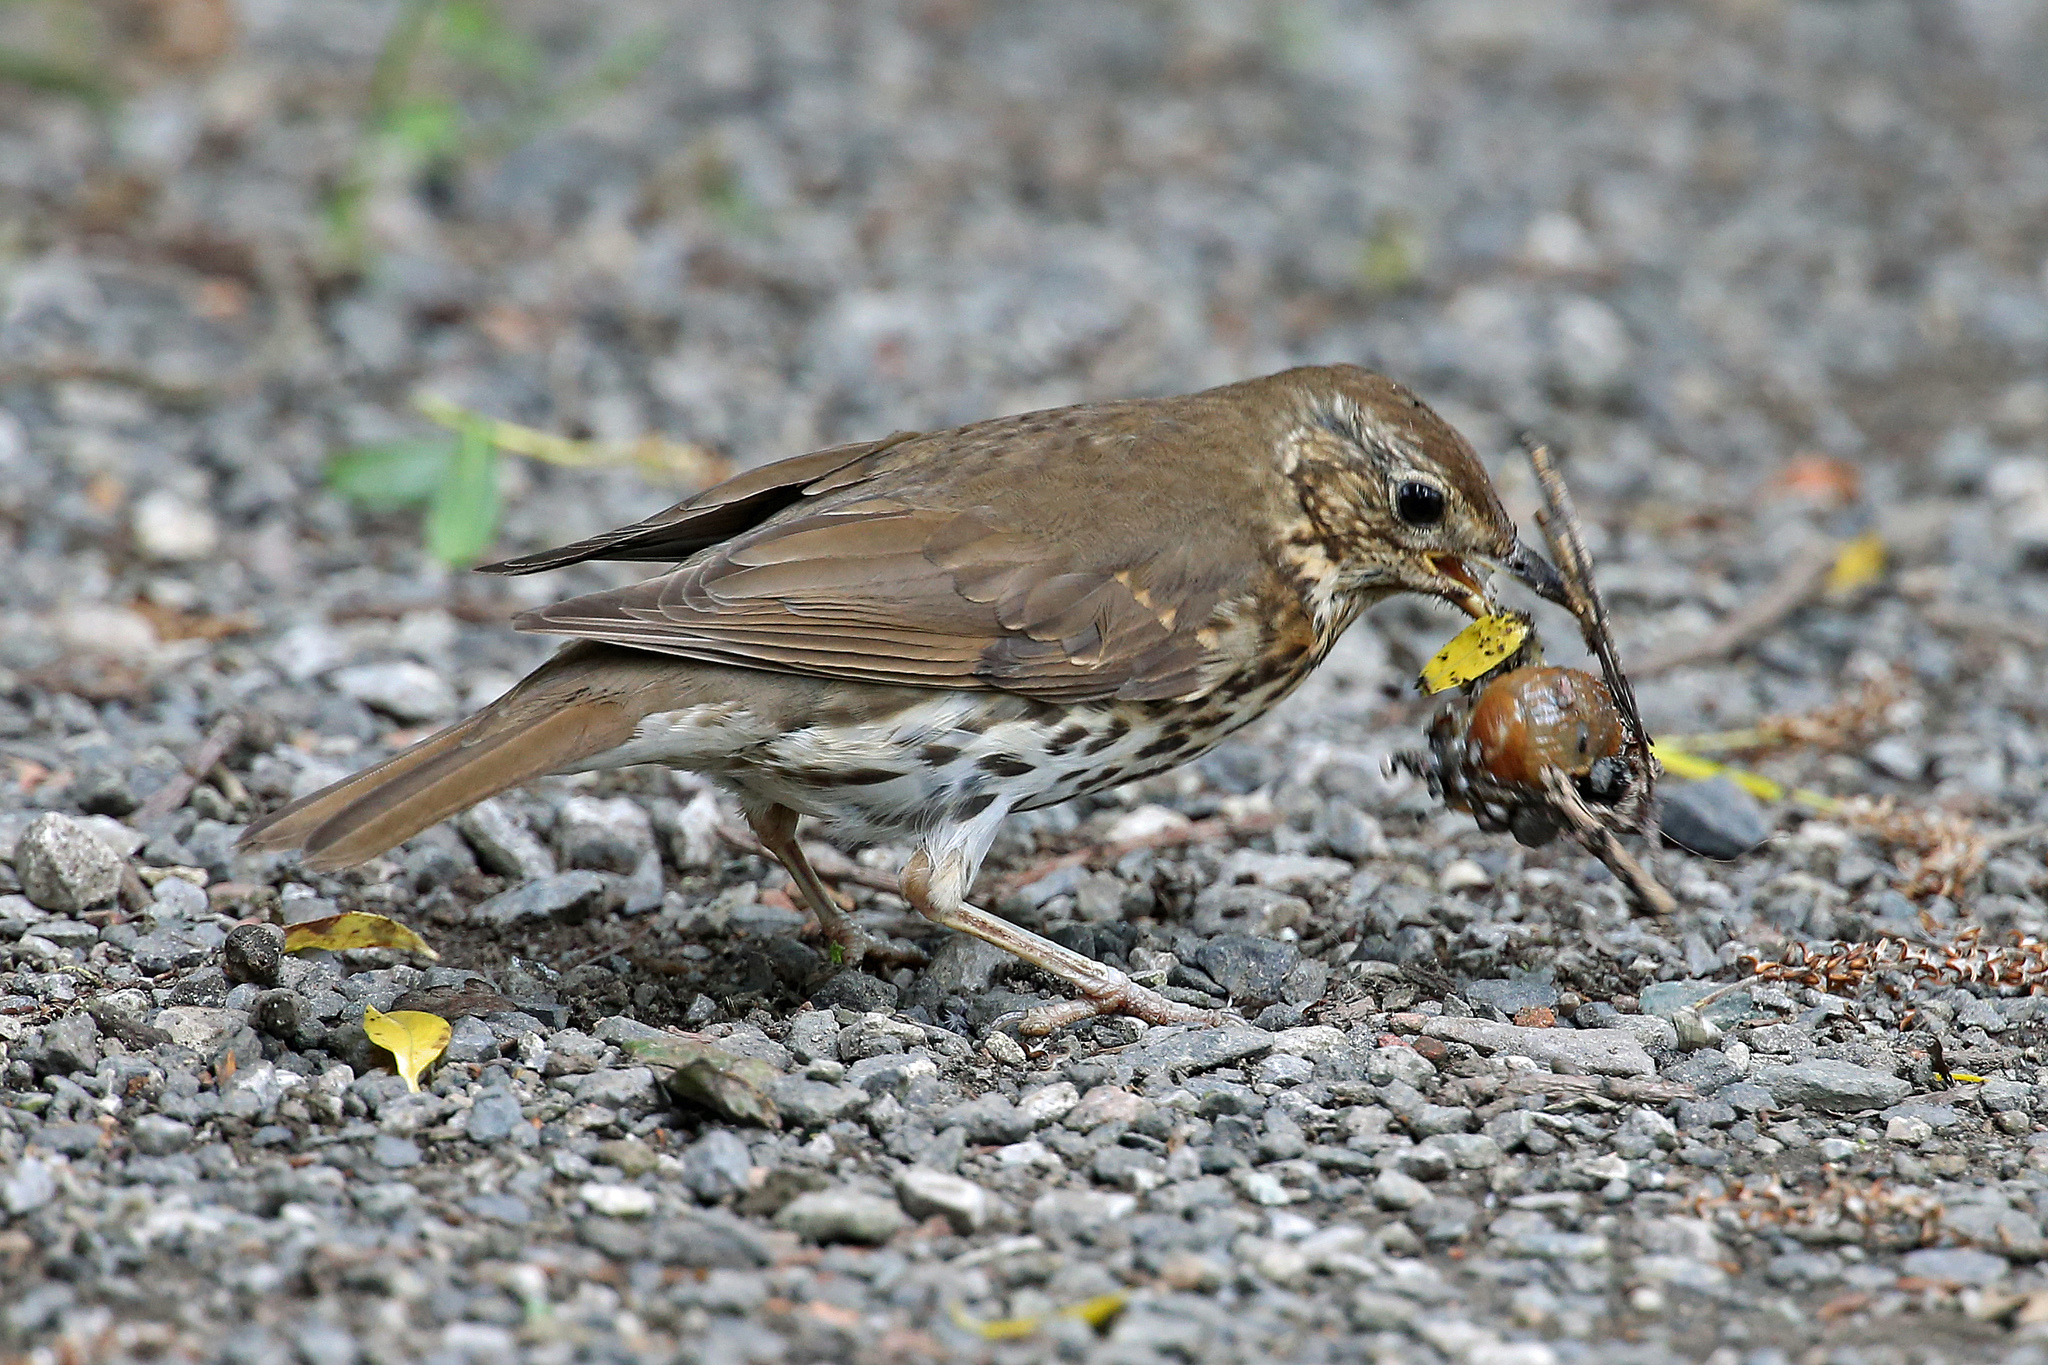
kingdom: Animalia
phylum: Chordata
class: Aves
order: Passeriformes
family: Turdidae
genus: Turdus
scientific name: Turdus philomelos
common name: Song thrush
